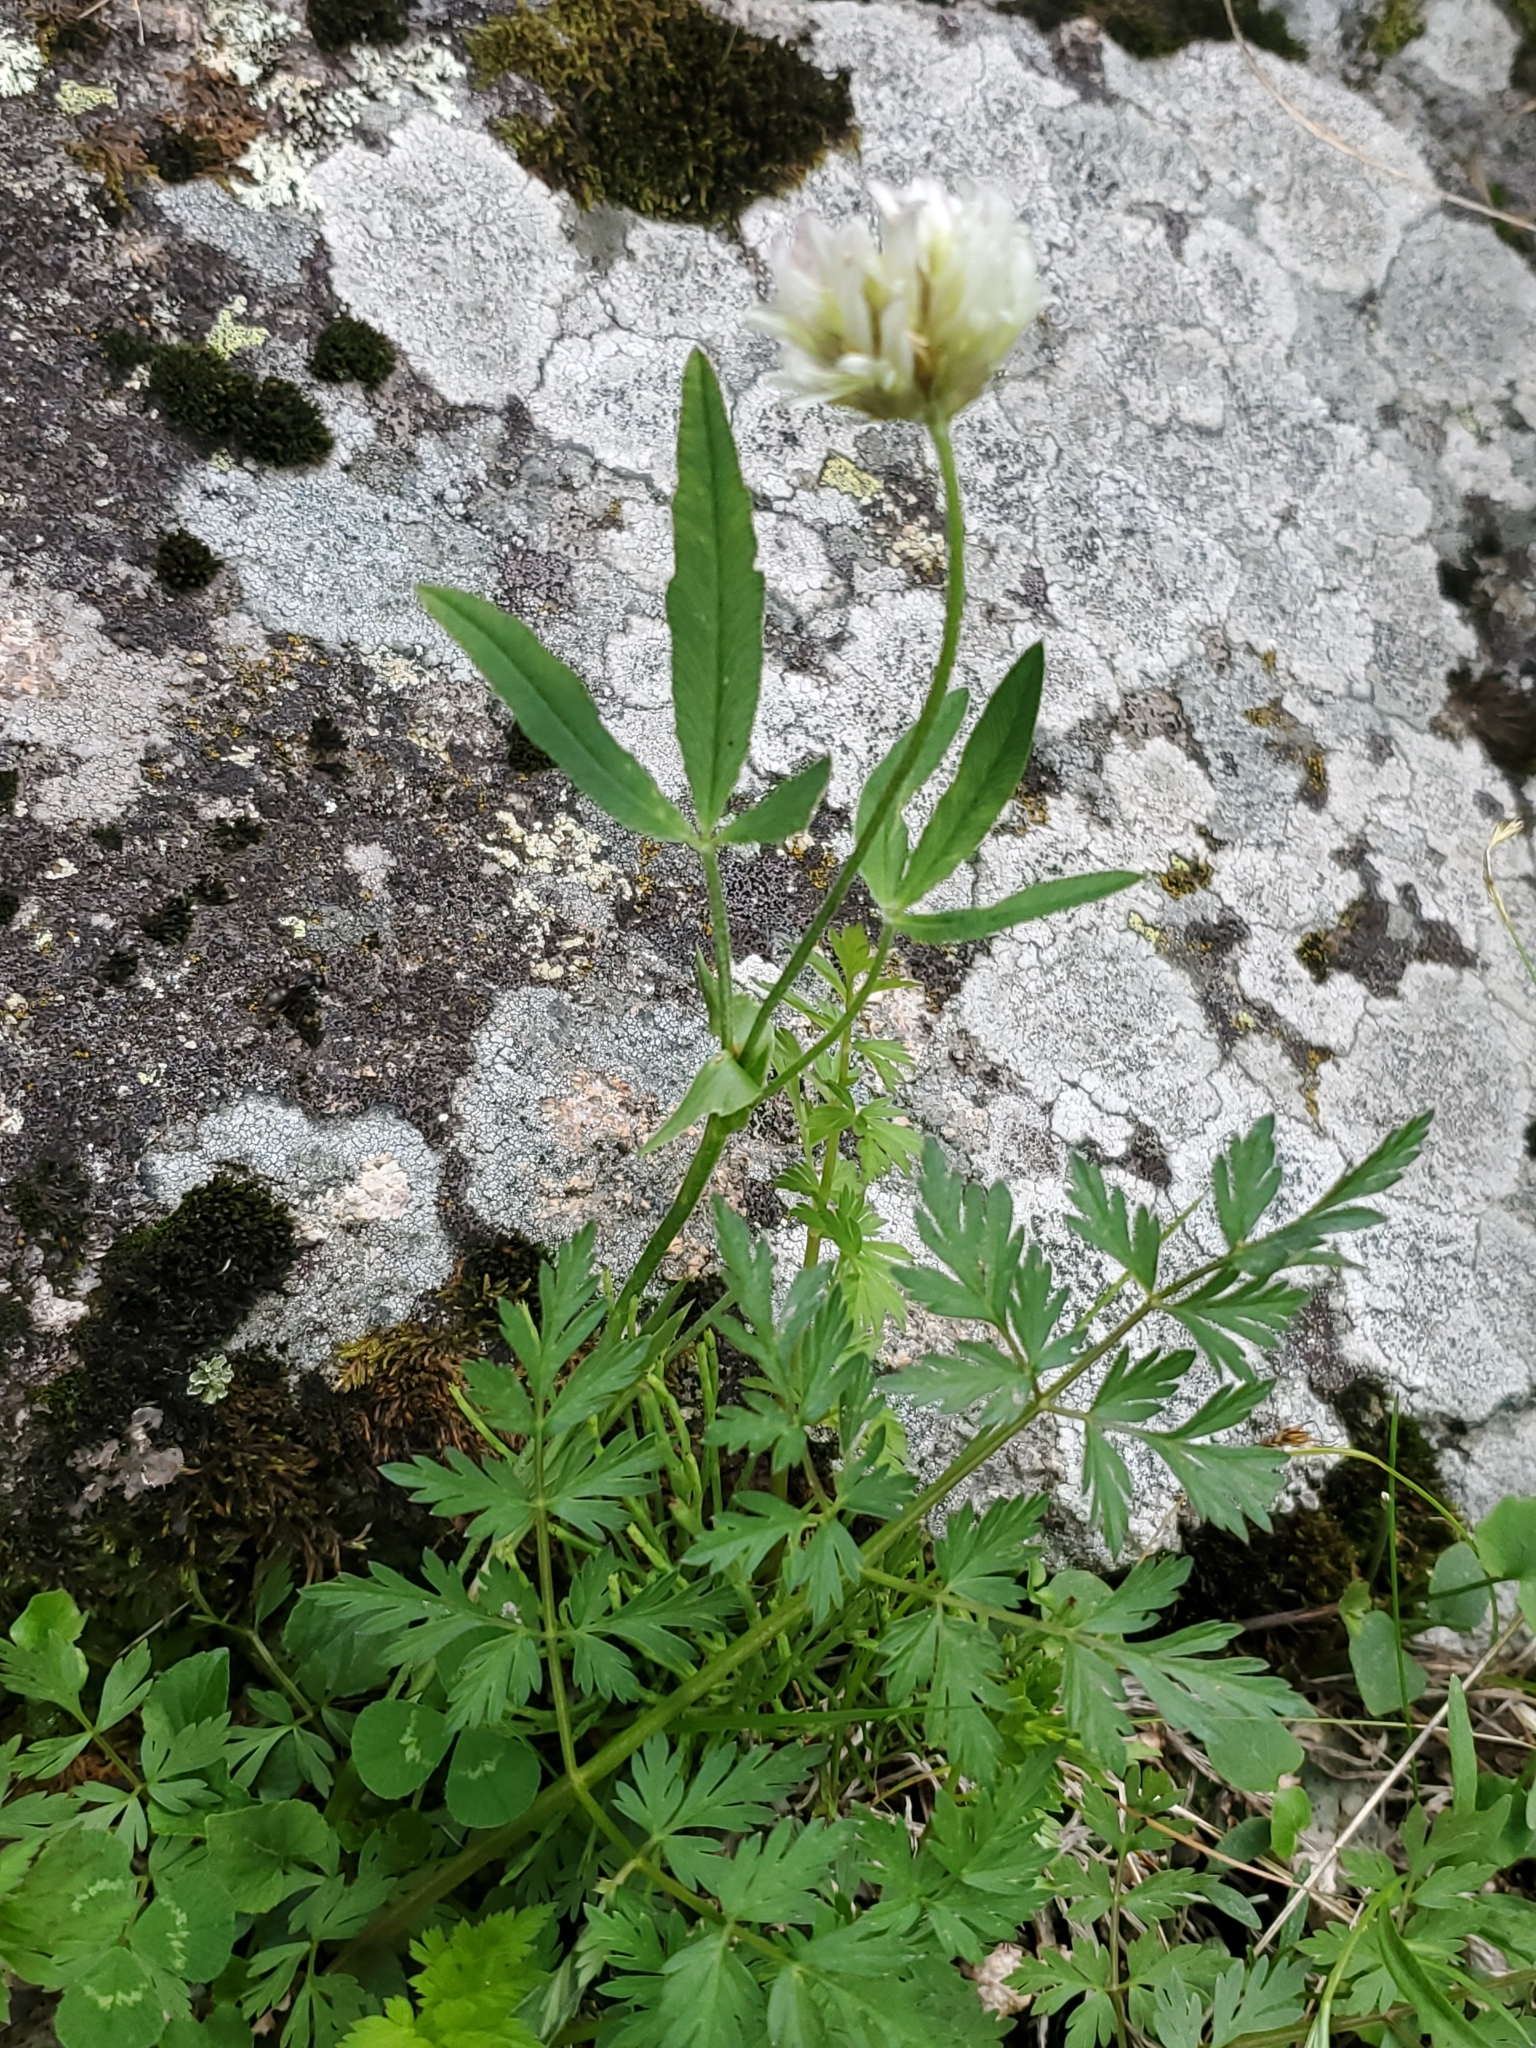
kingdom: Plantae
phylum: Tracheophyta
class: Magnoliopsida
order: Fabales
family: Fabaceae
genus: Trifolium
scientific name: Trifolium longipes
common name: Long-stalk clover
